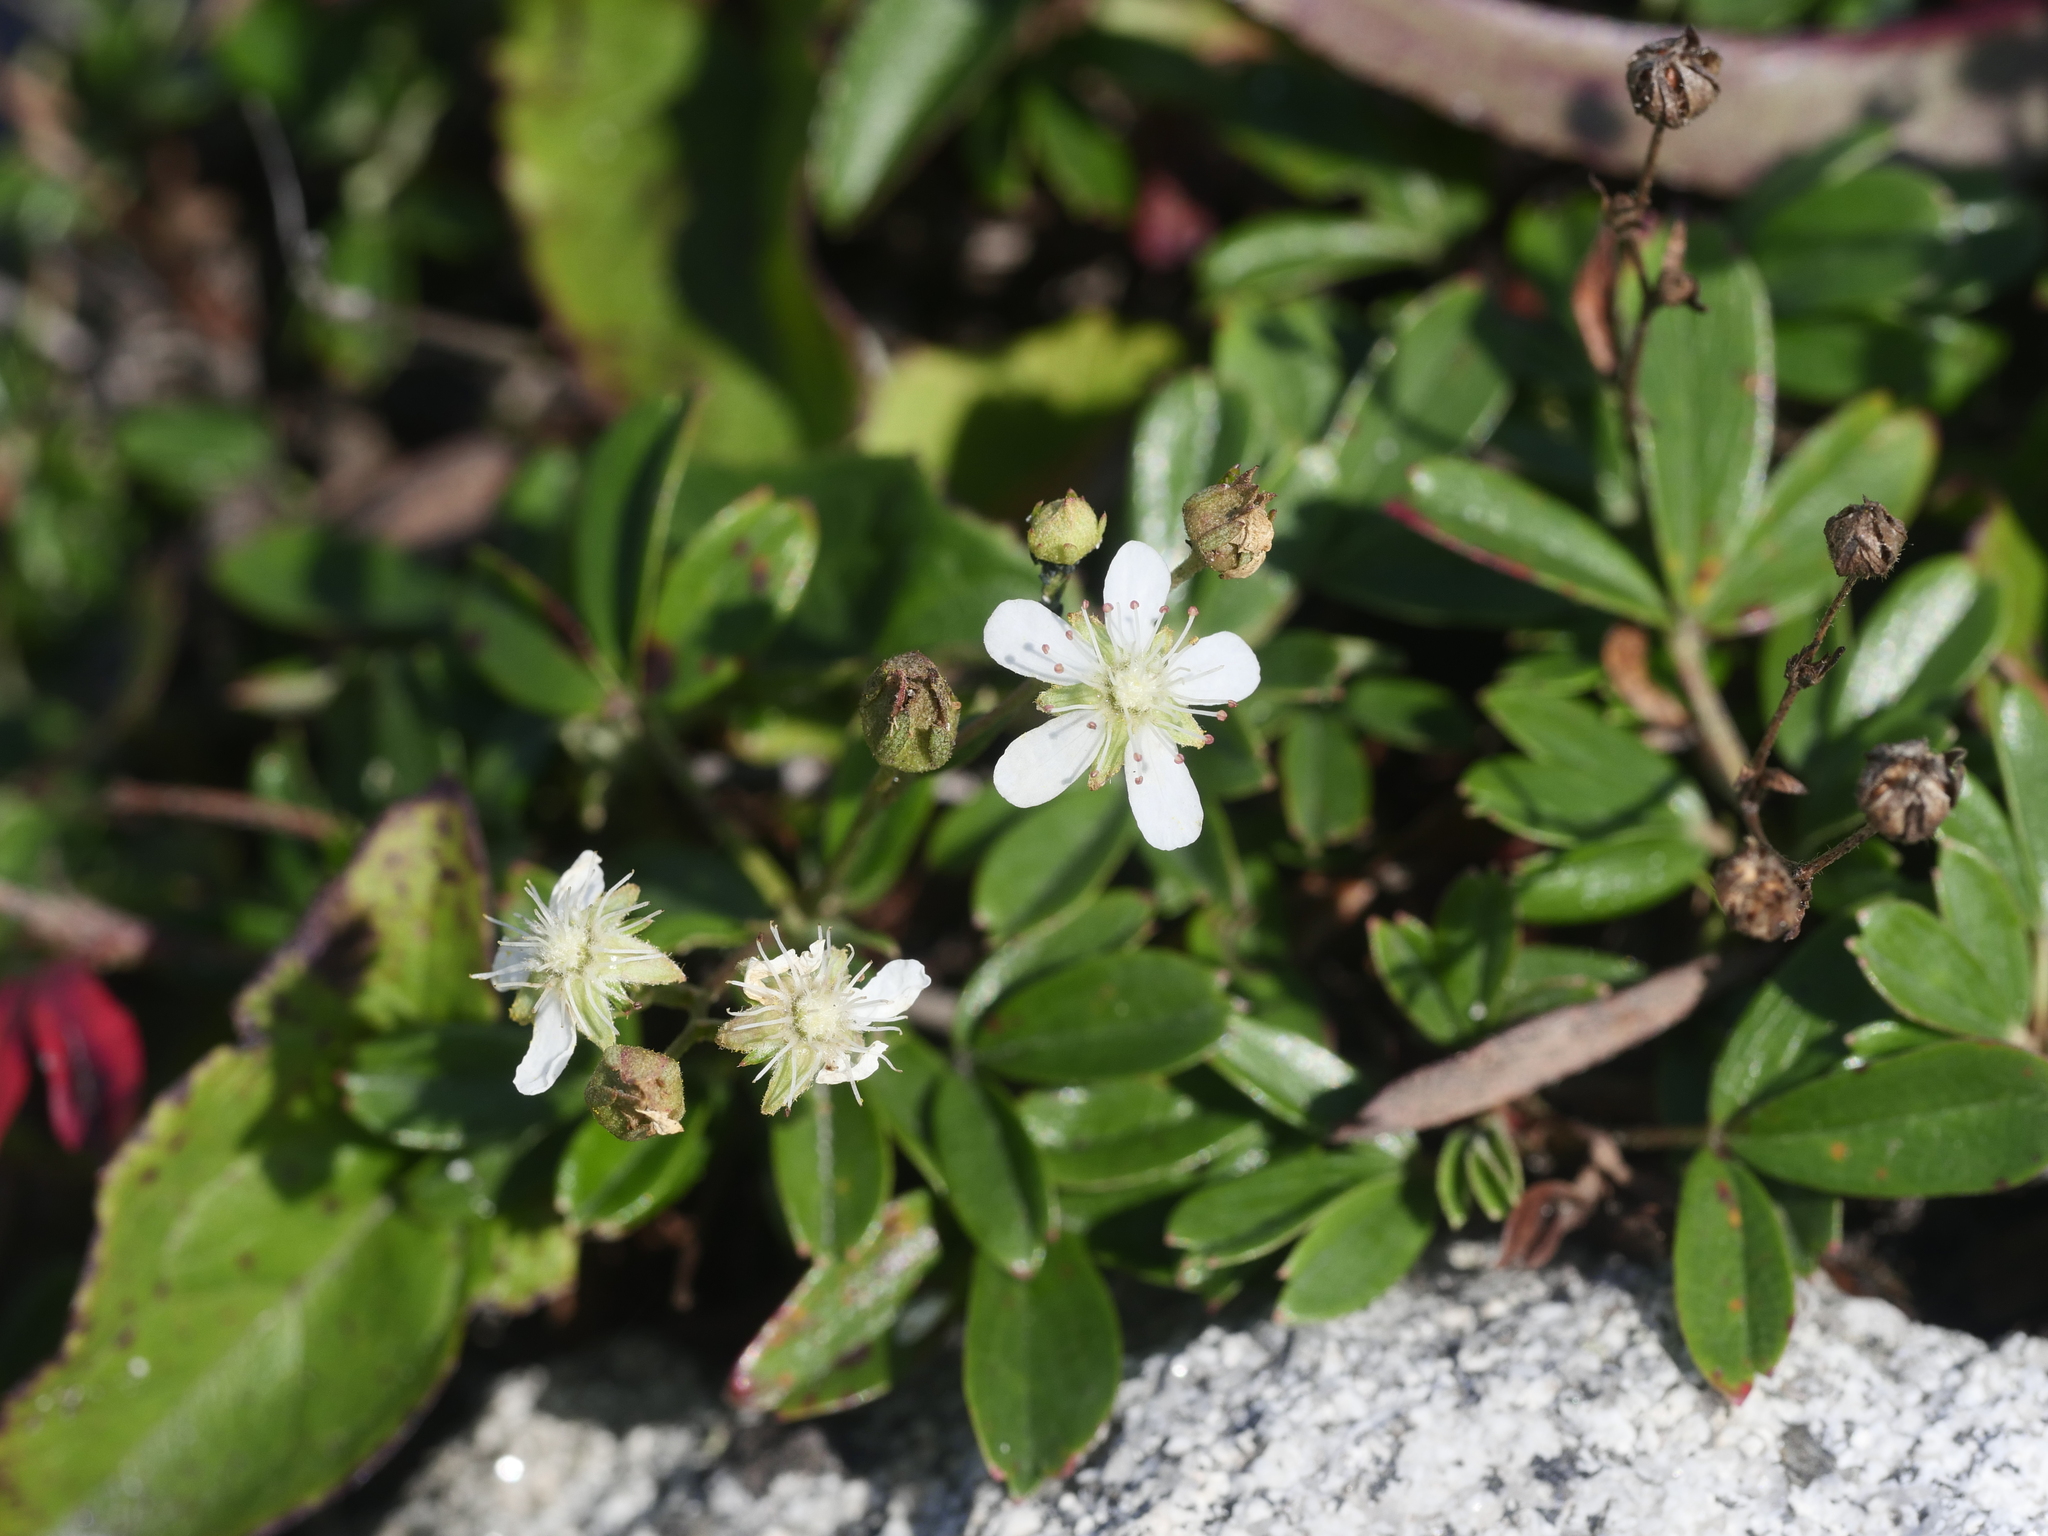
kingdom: Plantae
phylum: Tracheophyta
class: Magnoliopsida
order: Rosales
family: Rosaceae
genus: Sibbaldia
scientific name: Sibbaldia tridentata
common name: Three-toothed cinquefoil
